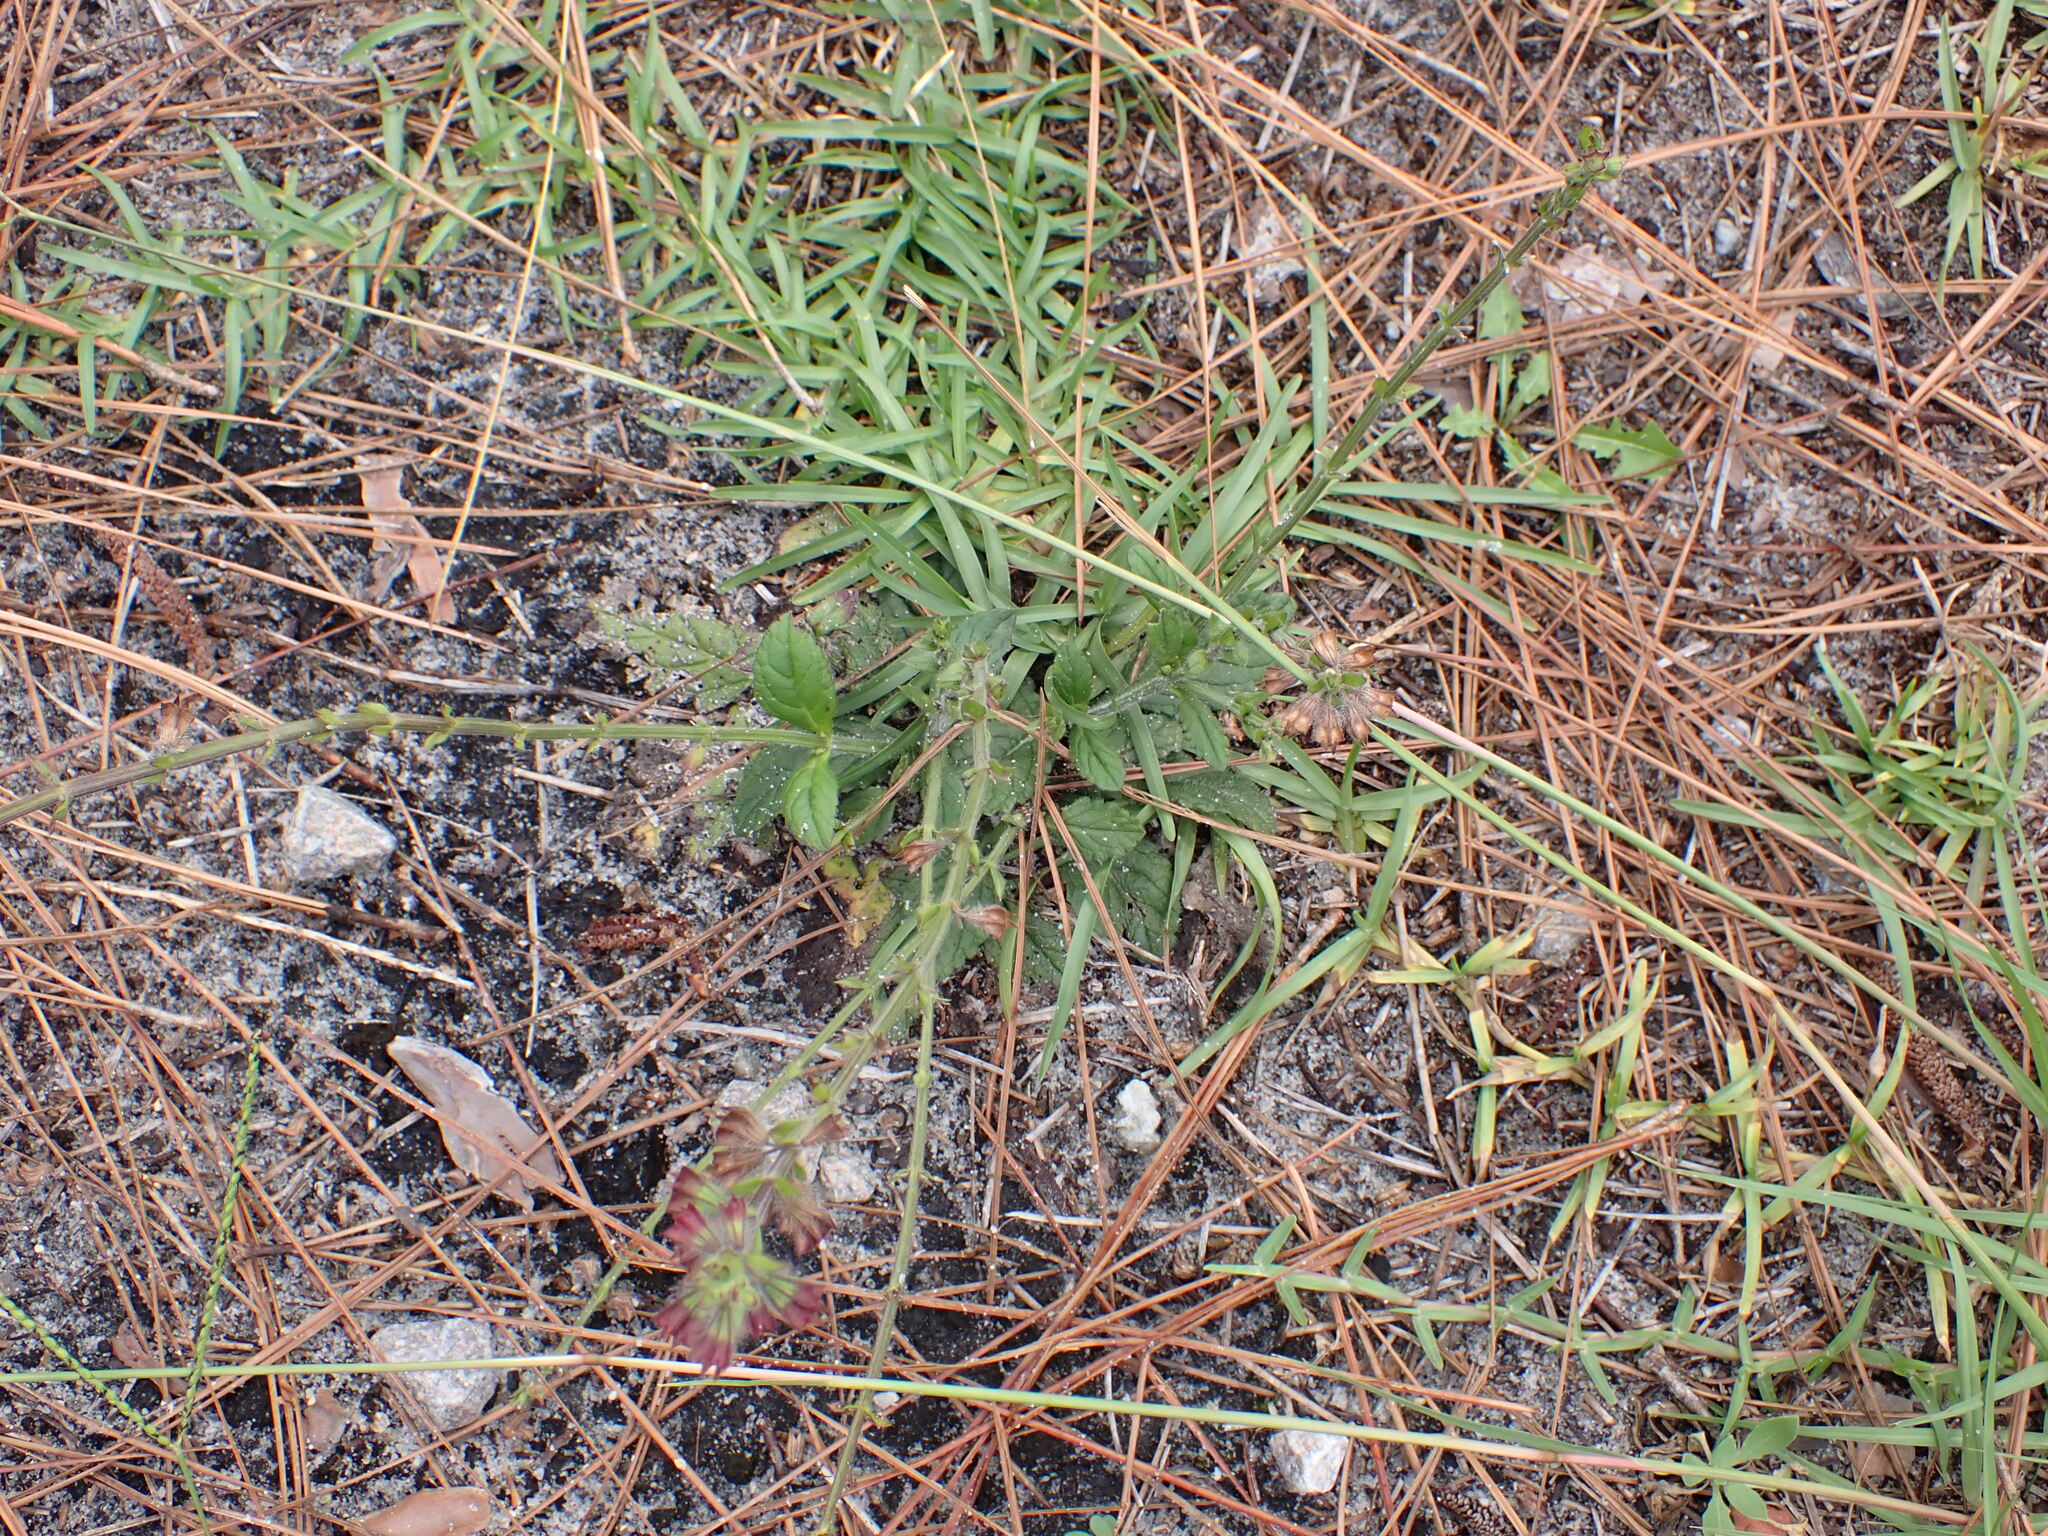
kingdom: Plantae
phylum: Tracheophyta
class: Magnoliopsida
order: Lamiales
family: Lamiaceae
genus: Salvia
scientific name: Salvia lyrata
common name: Cancerweed
